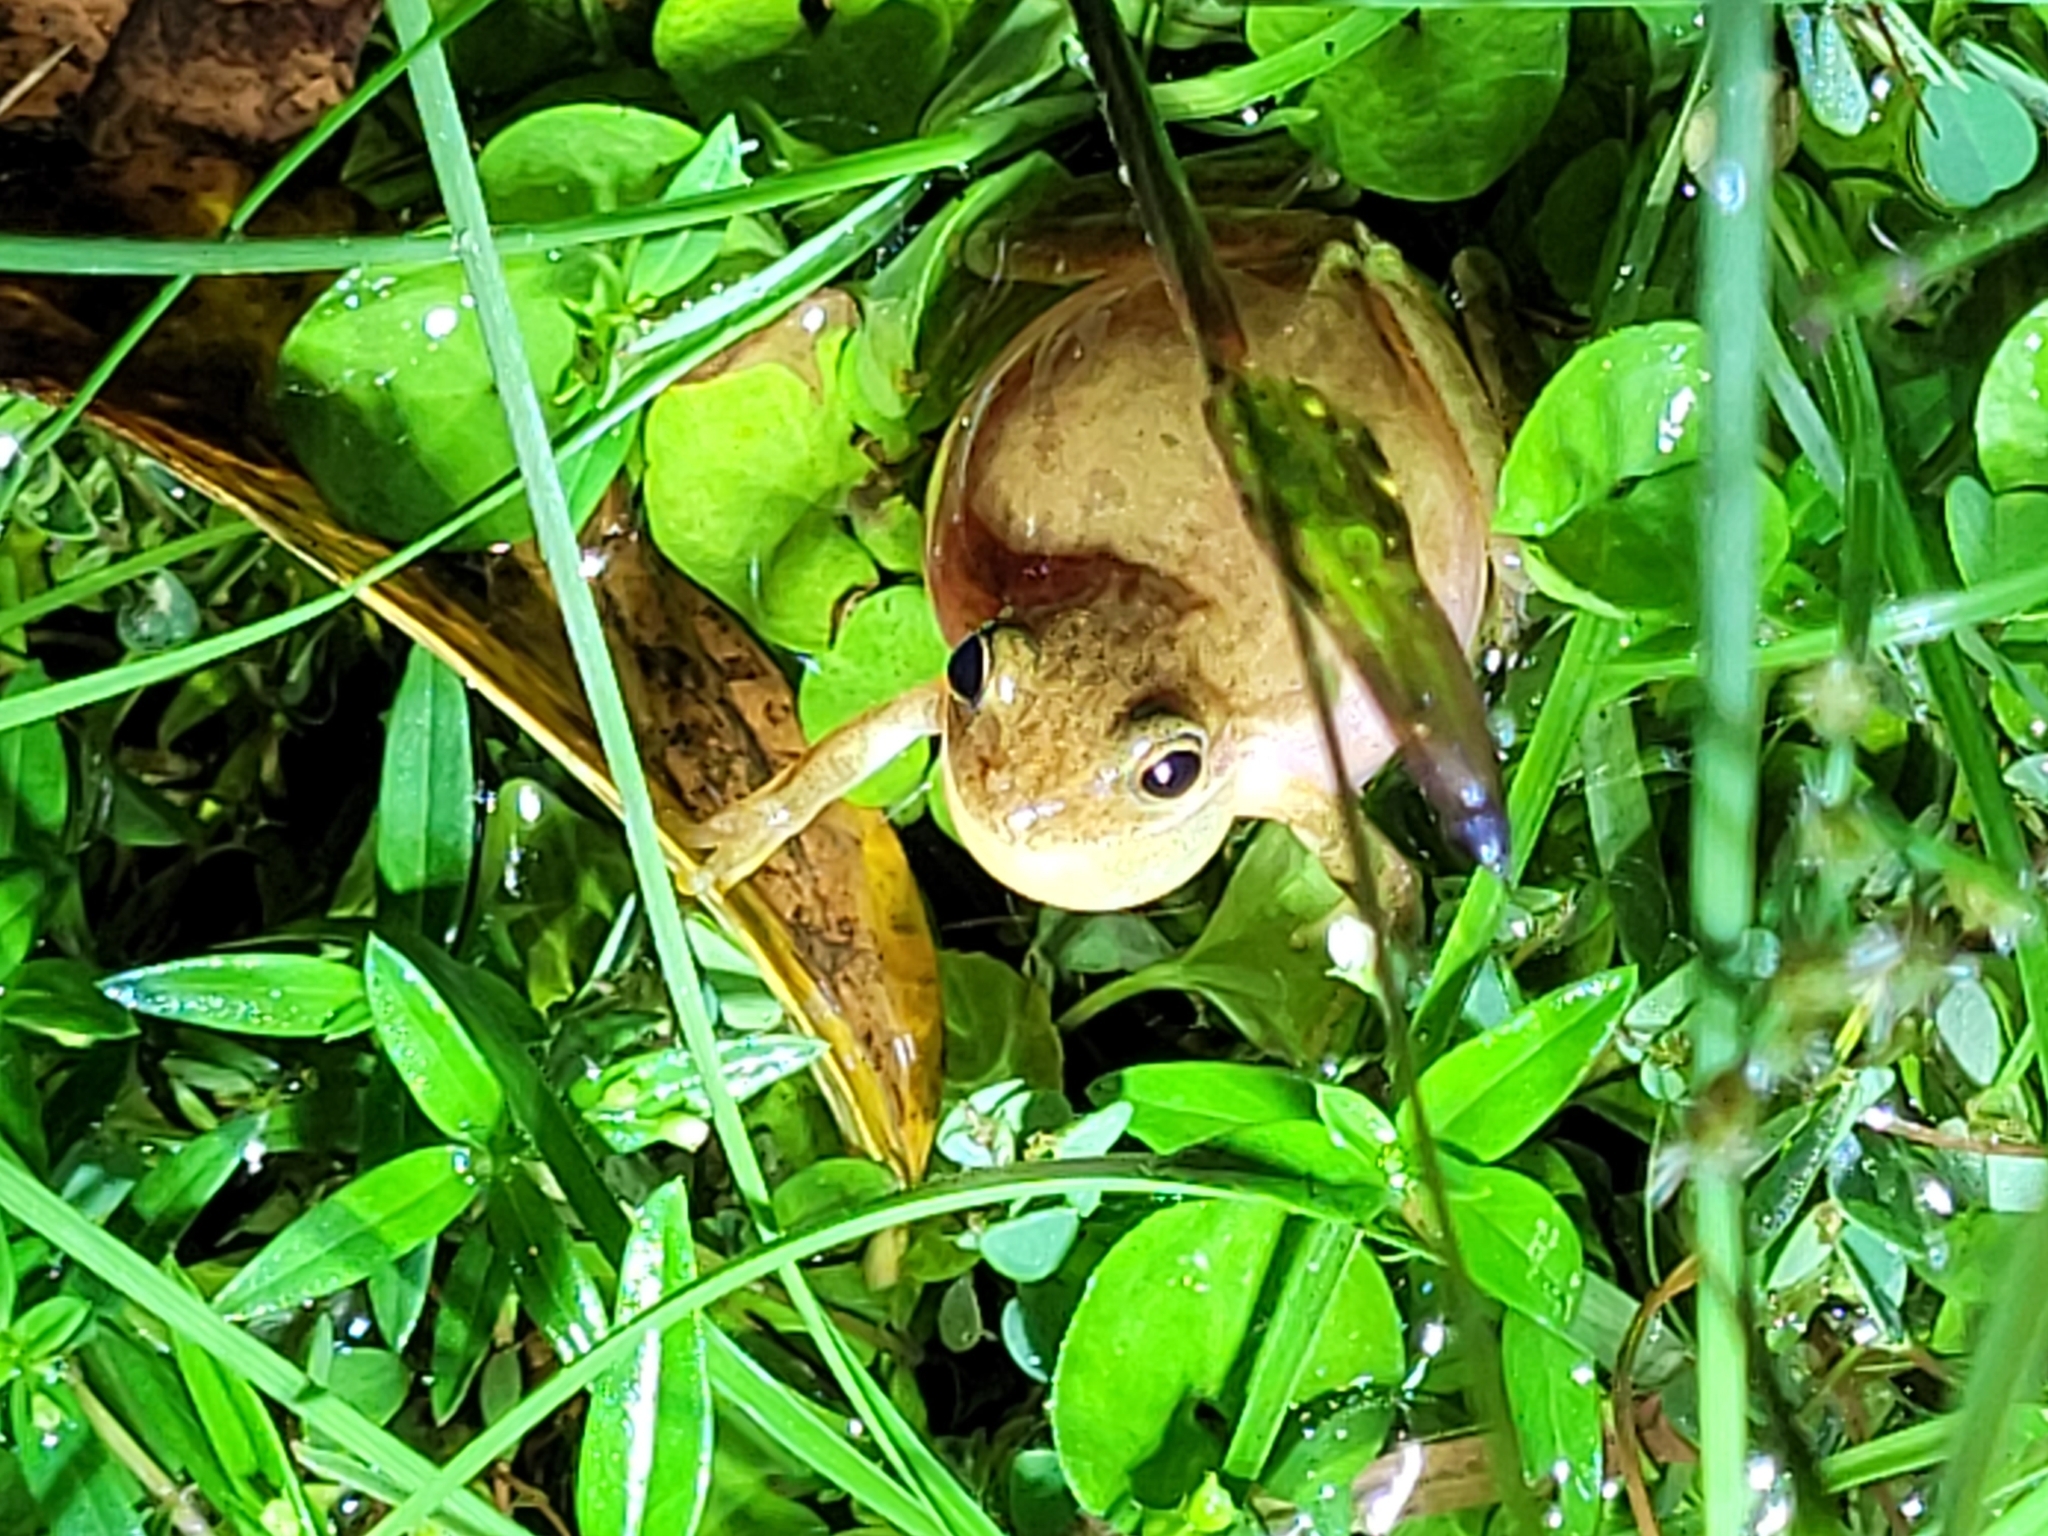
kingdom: Animalia
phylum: Chordata
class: Amphibia
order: Anura
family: Hylidae
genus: Dryophytes
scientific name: Dryophytes squirellus
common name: Squirrel treefrog
